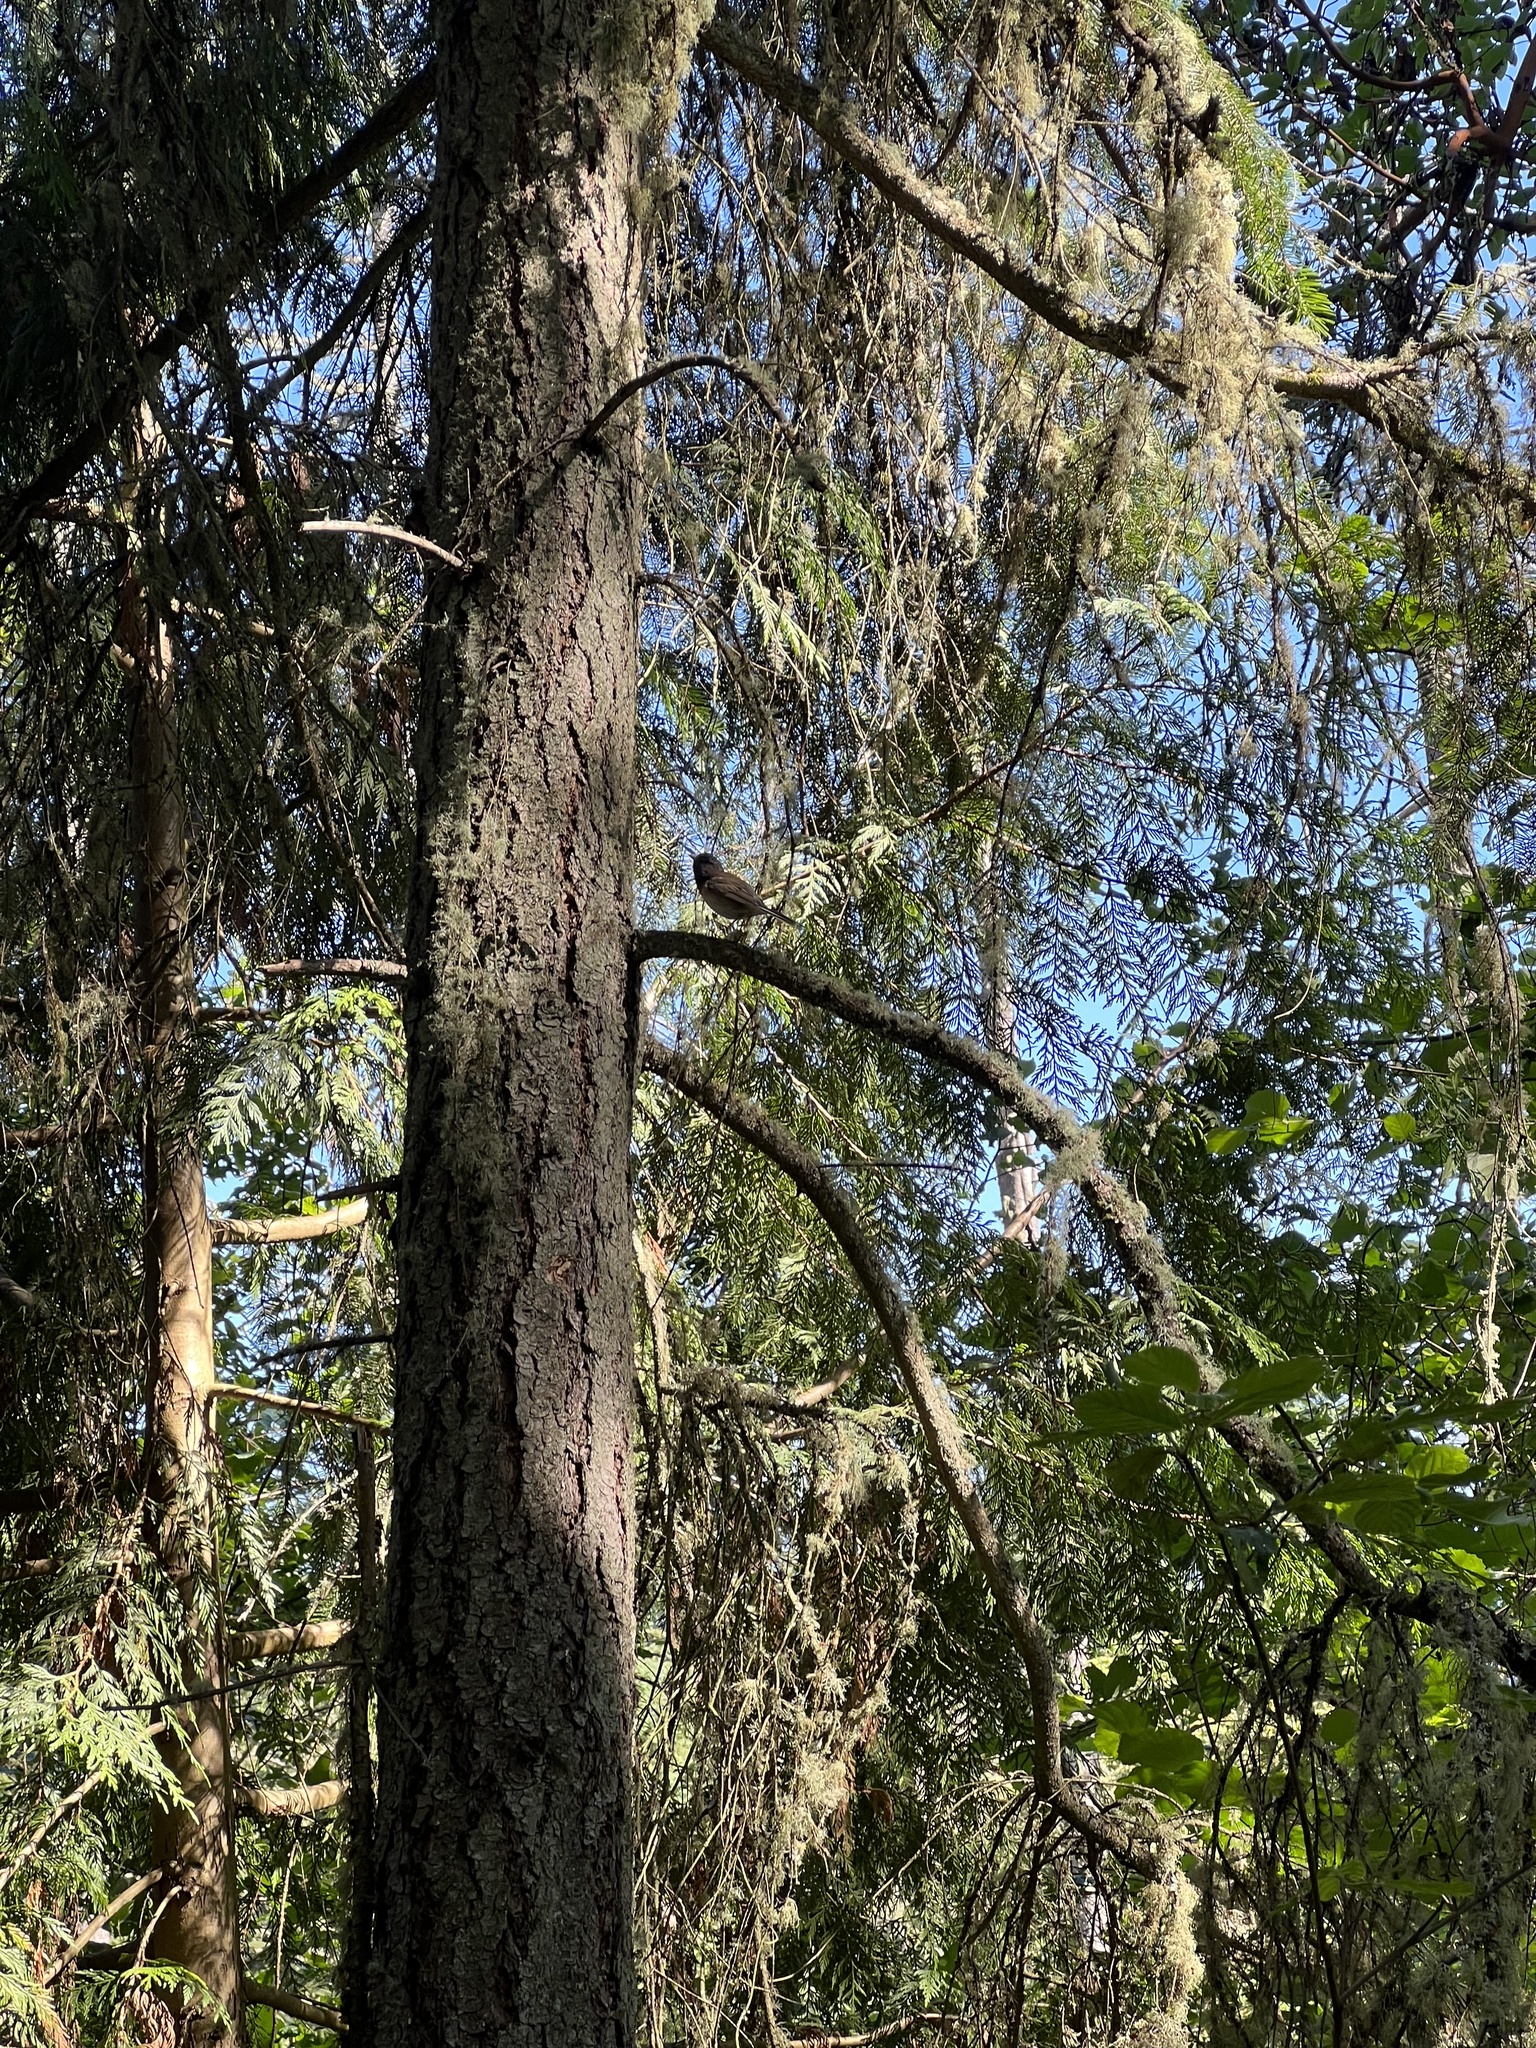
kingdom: Animalia
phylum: Chordata
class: Aves
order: Passeriformes
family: Passerellidae
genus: Junco
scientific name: Junco hyemalis
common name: Dark-eyed junco
